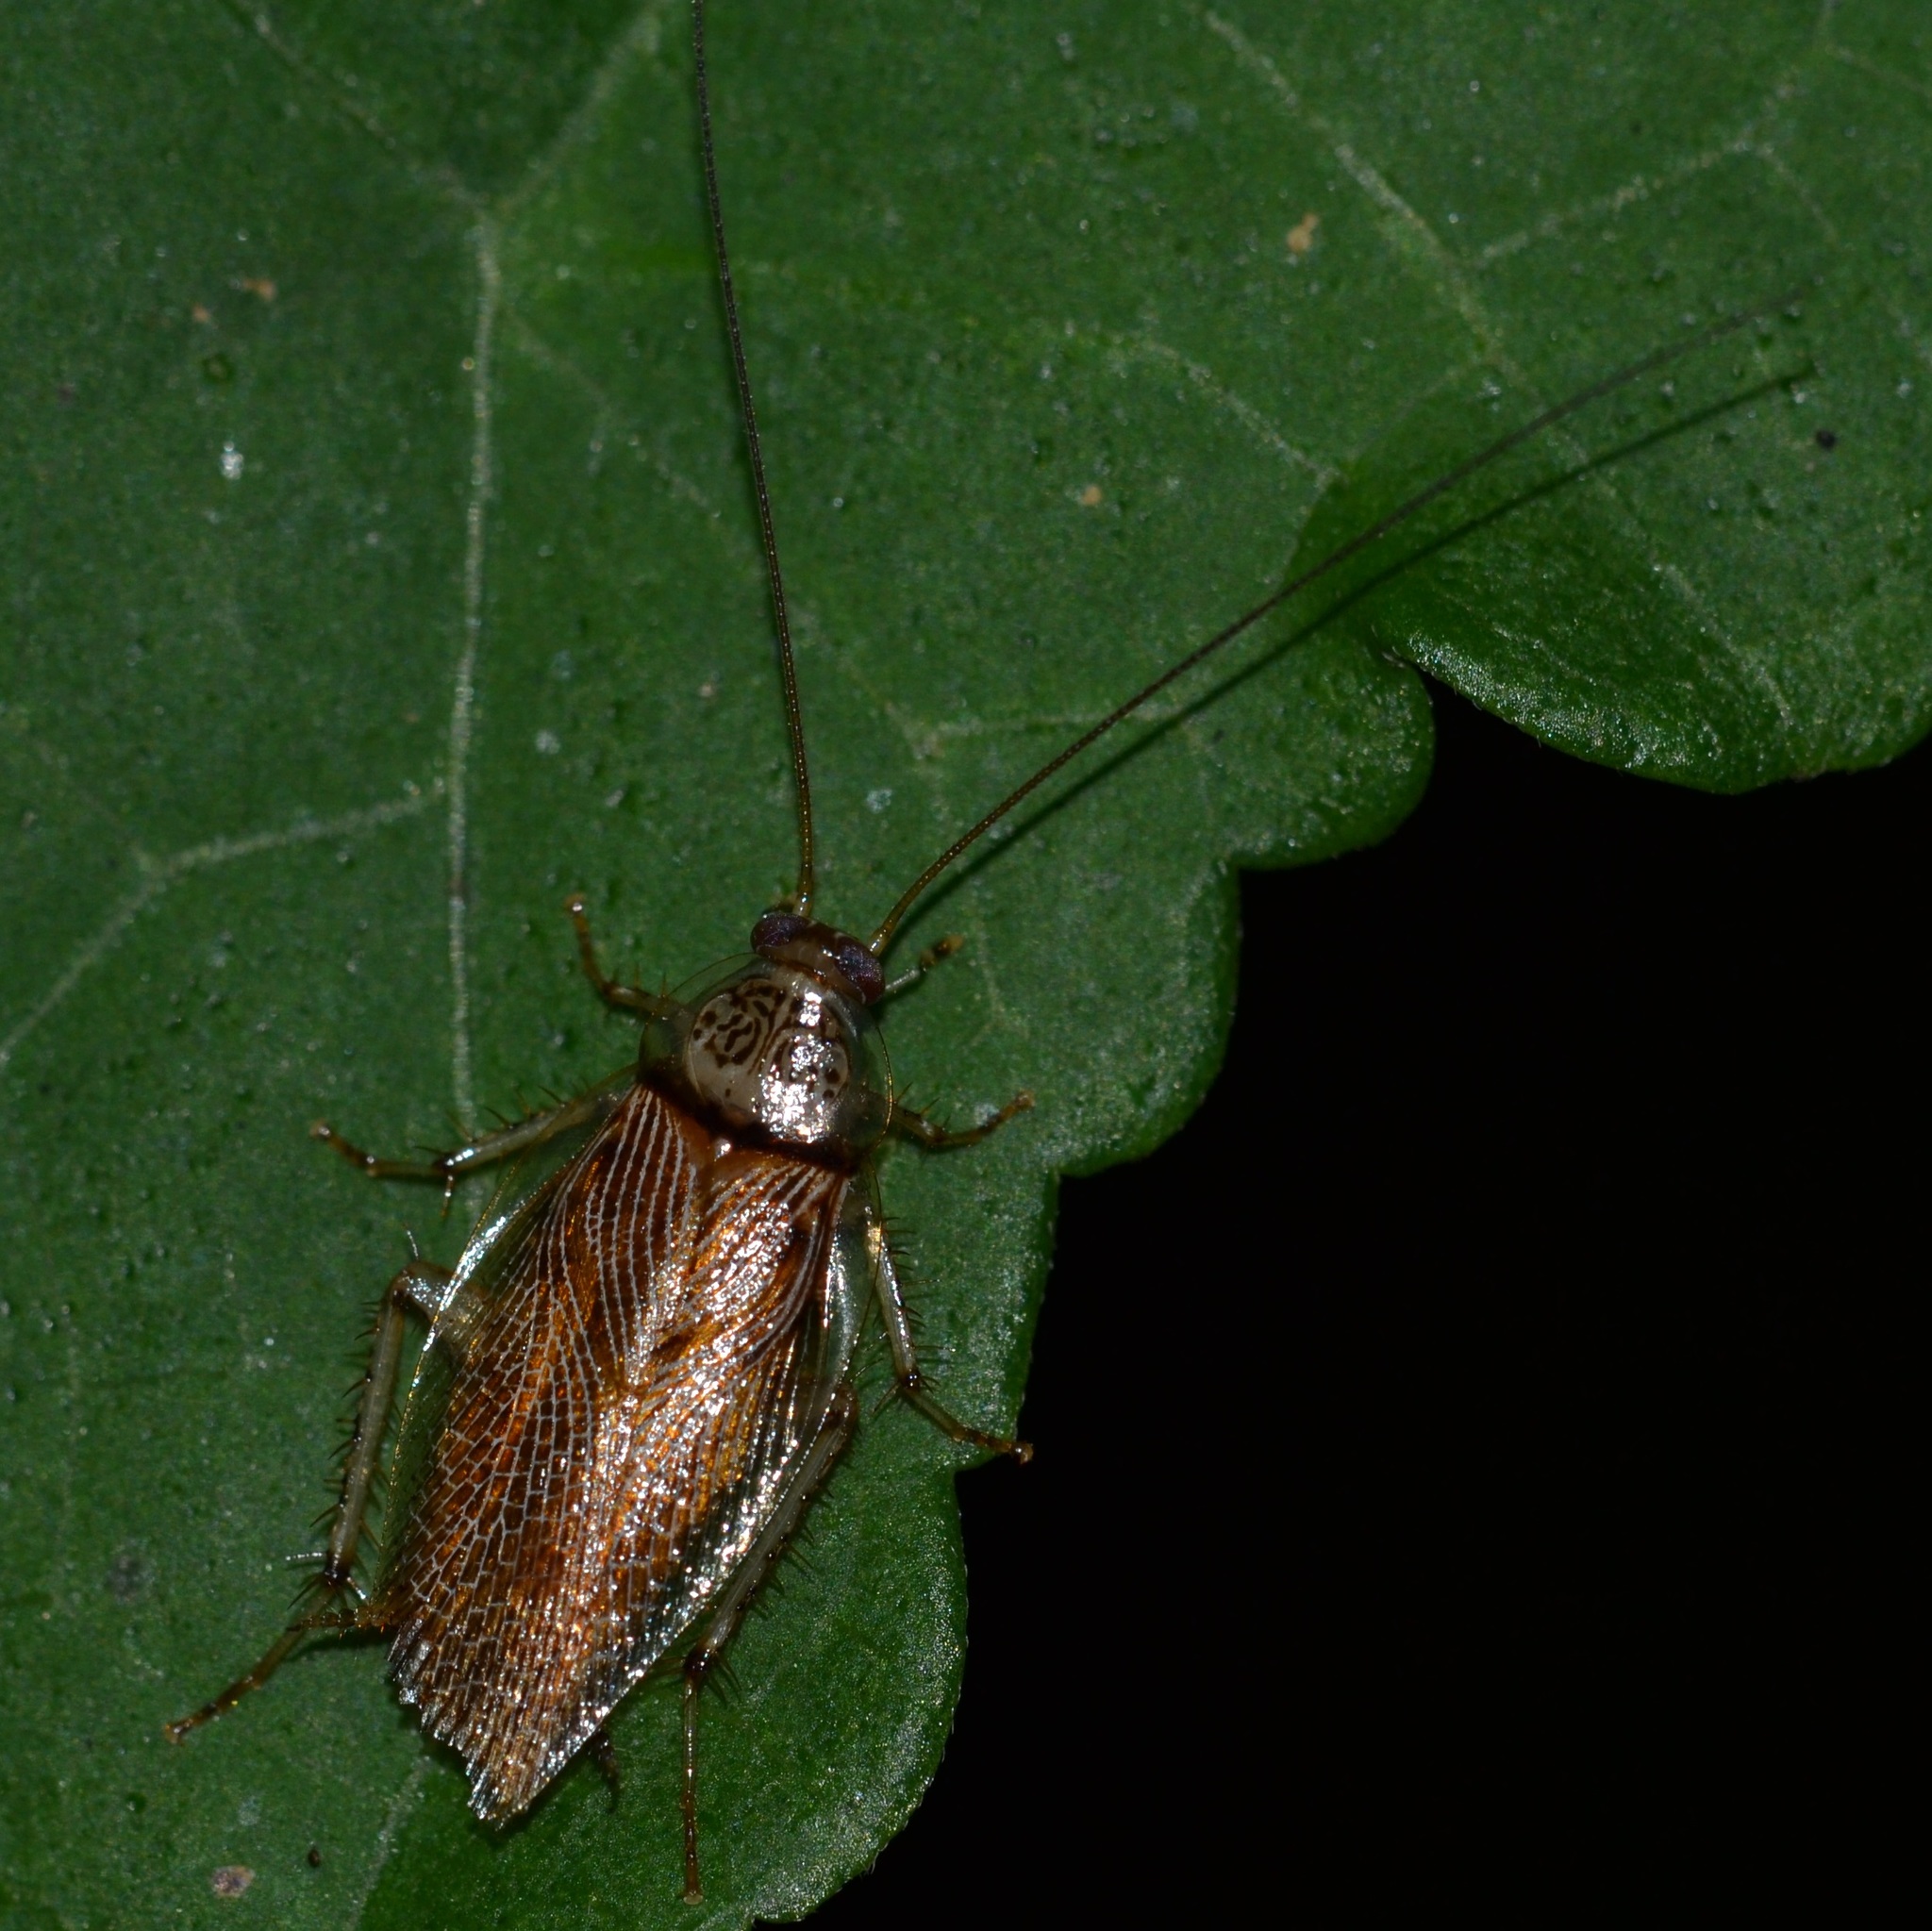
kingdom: Animalia
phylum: Arthropoda
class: Insecta
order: Blattodea
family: Ectobiidae
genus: Balta
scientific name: Balta notulata
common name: Cockroach
